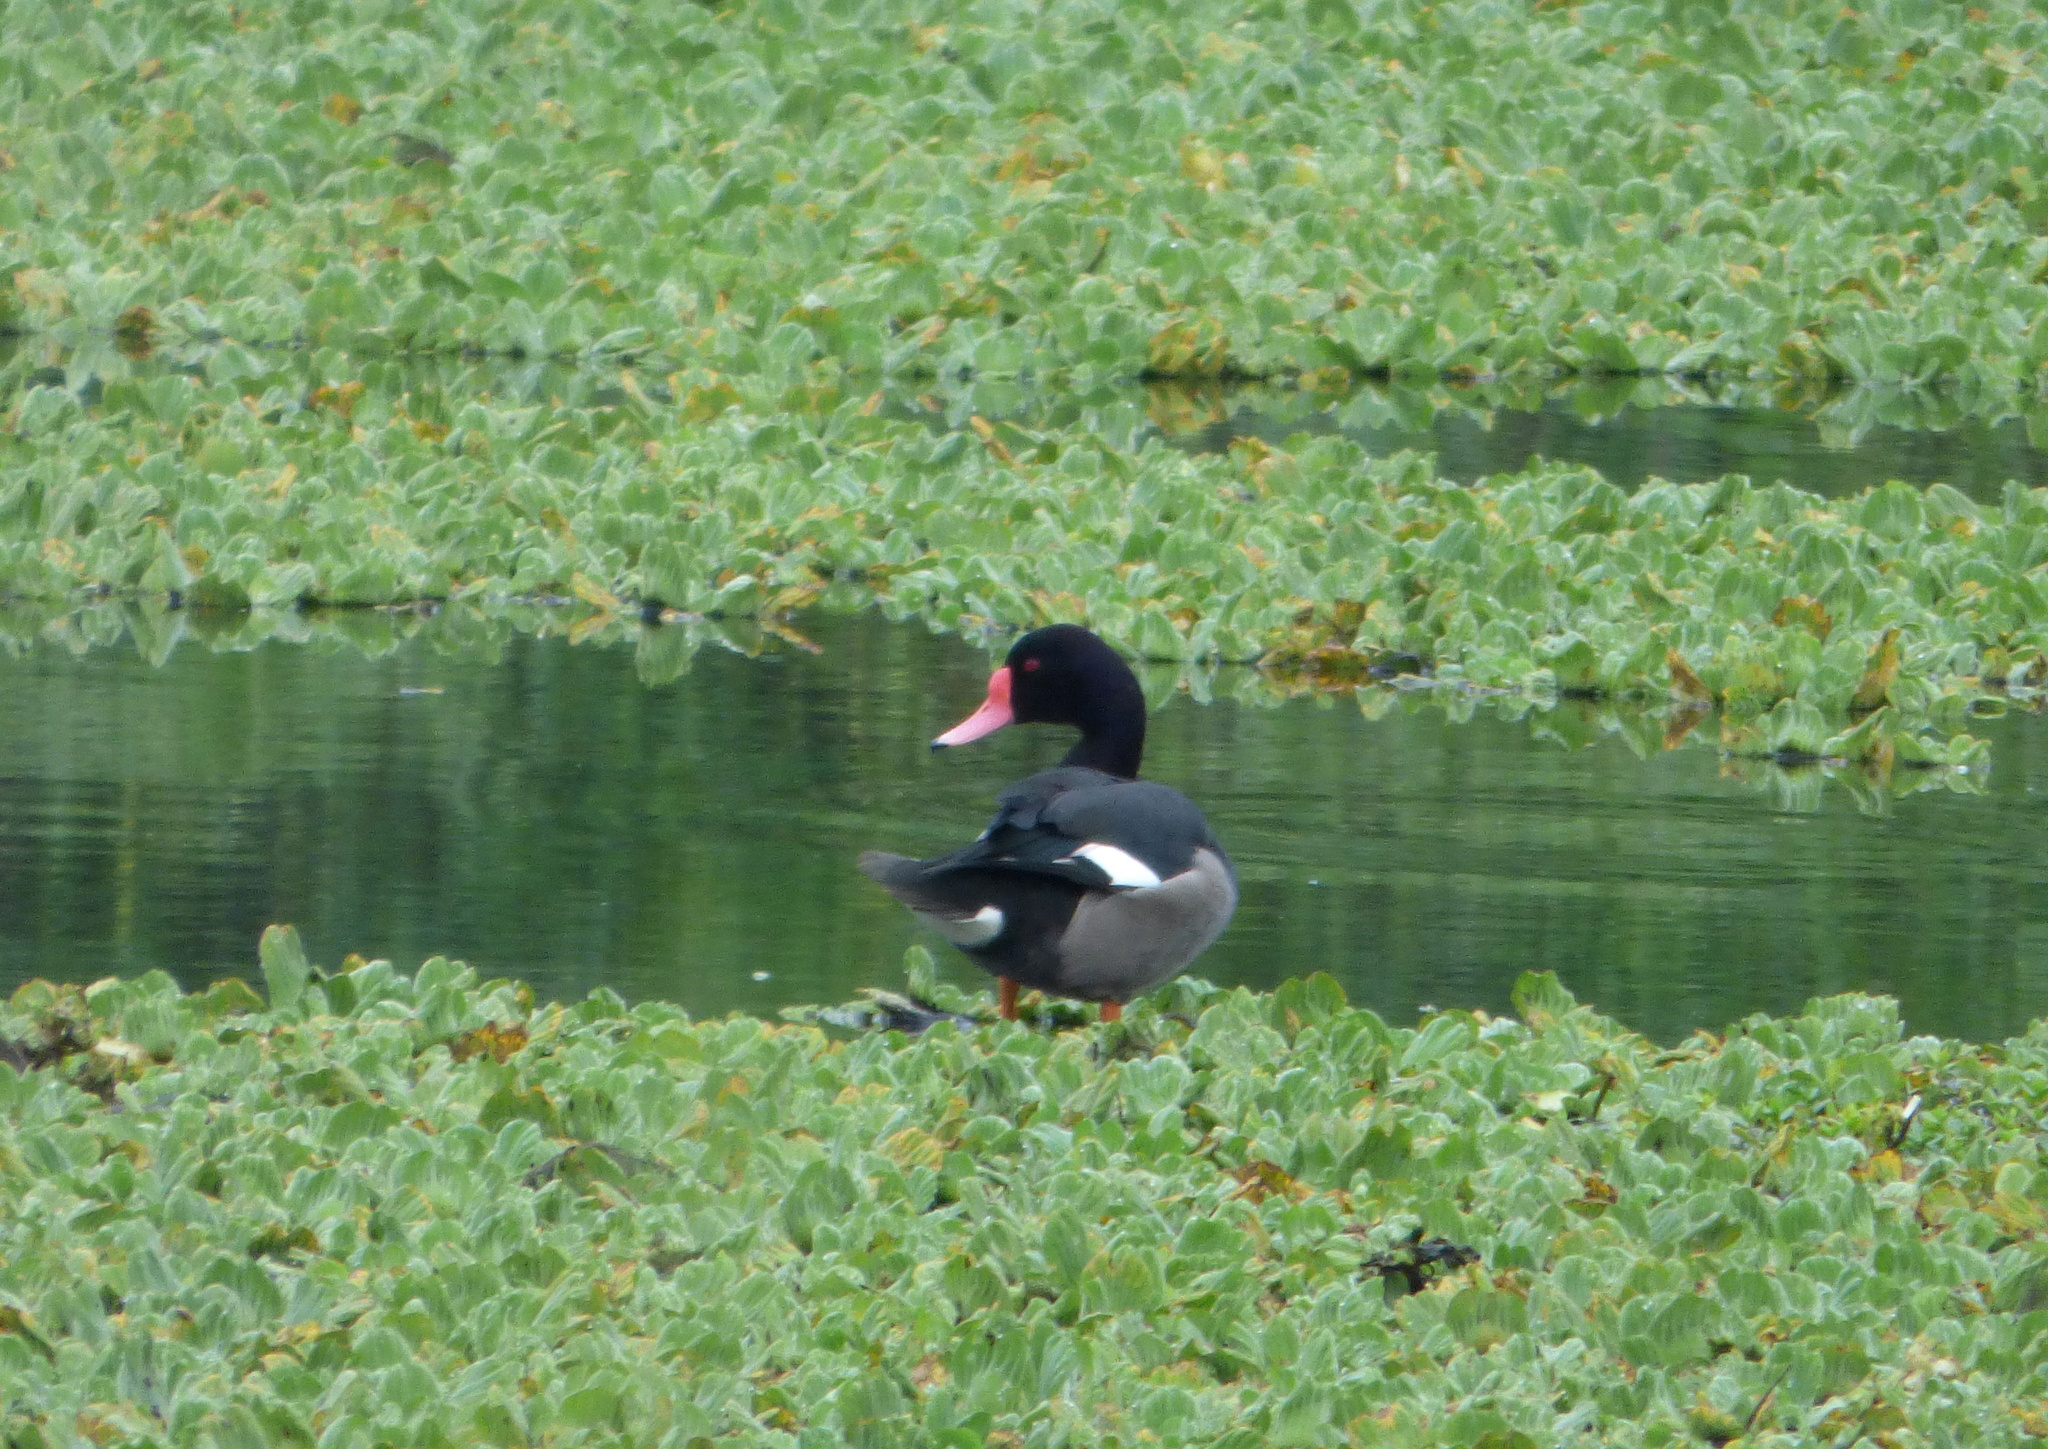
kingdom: Animalia
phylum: Chordata
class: Aves
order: Anseriformes
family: Anatidae
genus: Netta
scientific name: Netta peposaca
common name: Rosy-billed pochard
